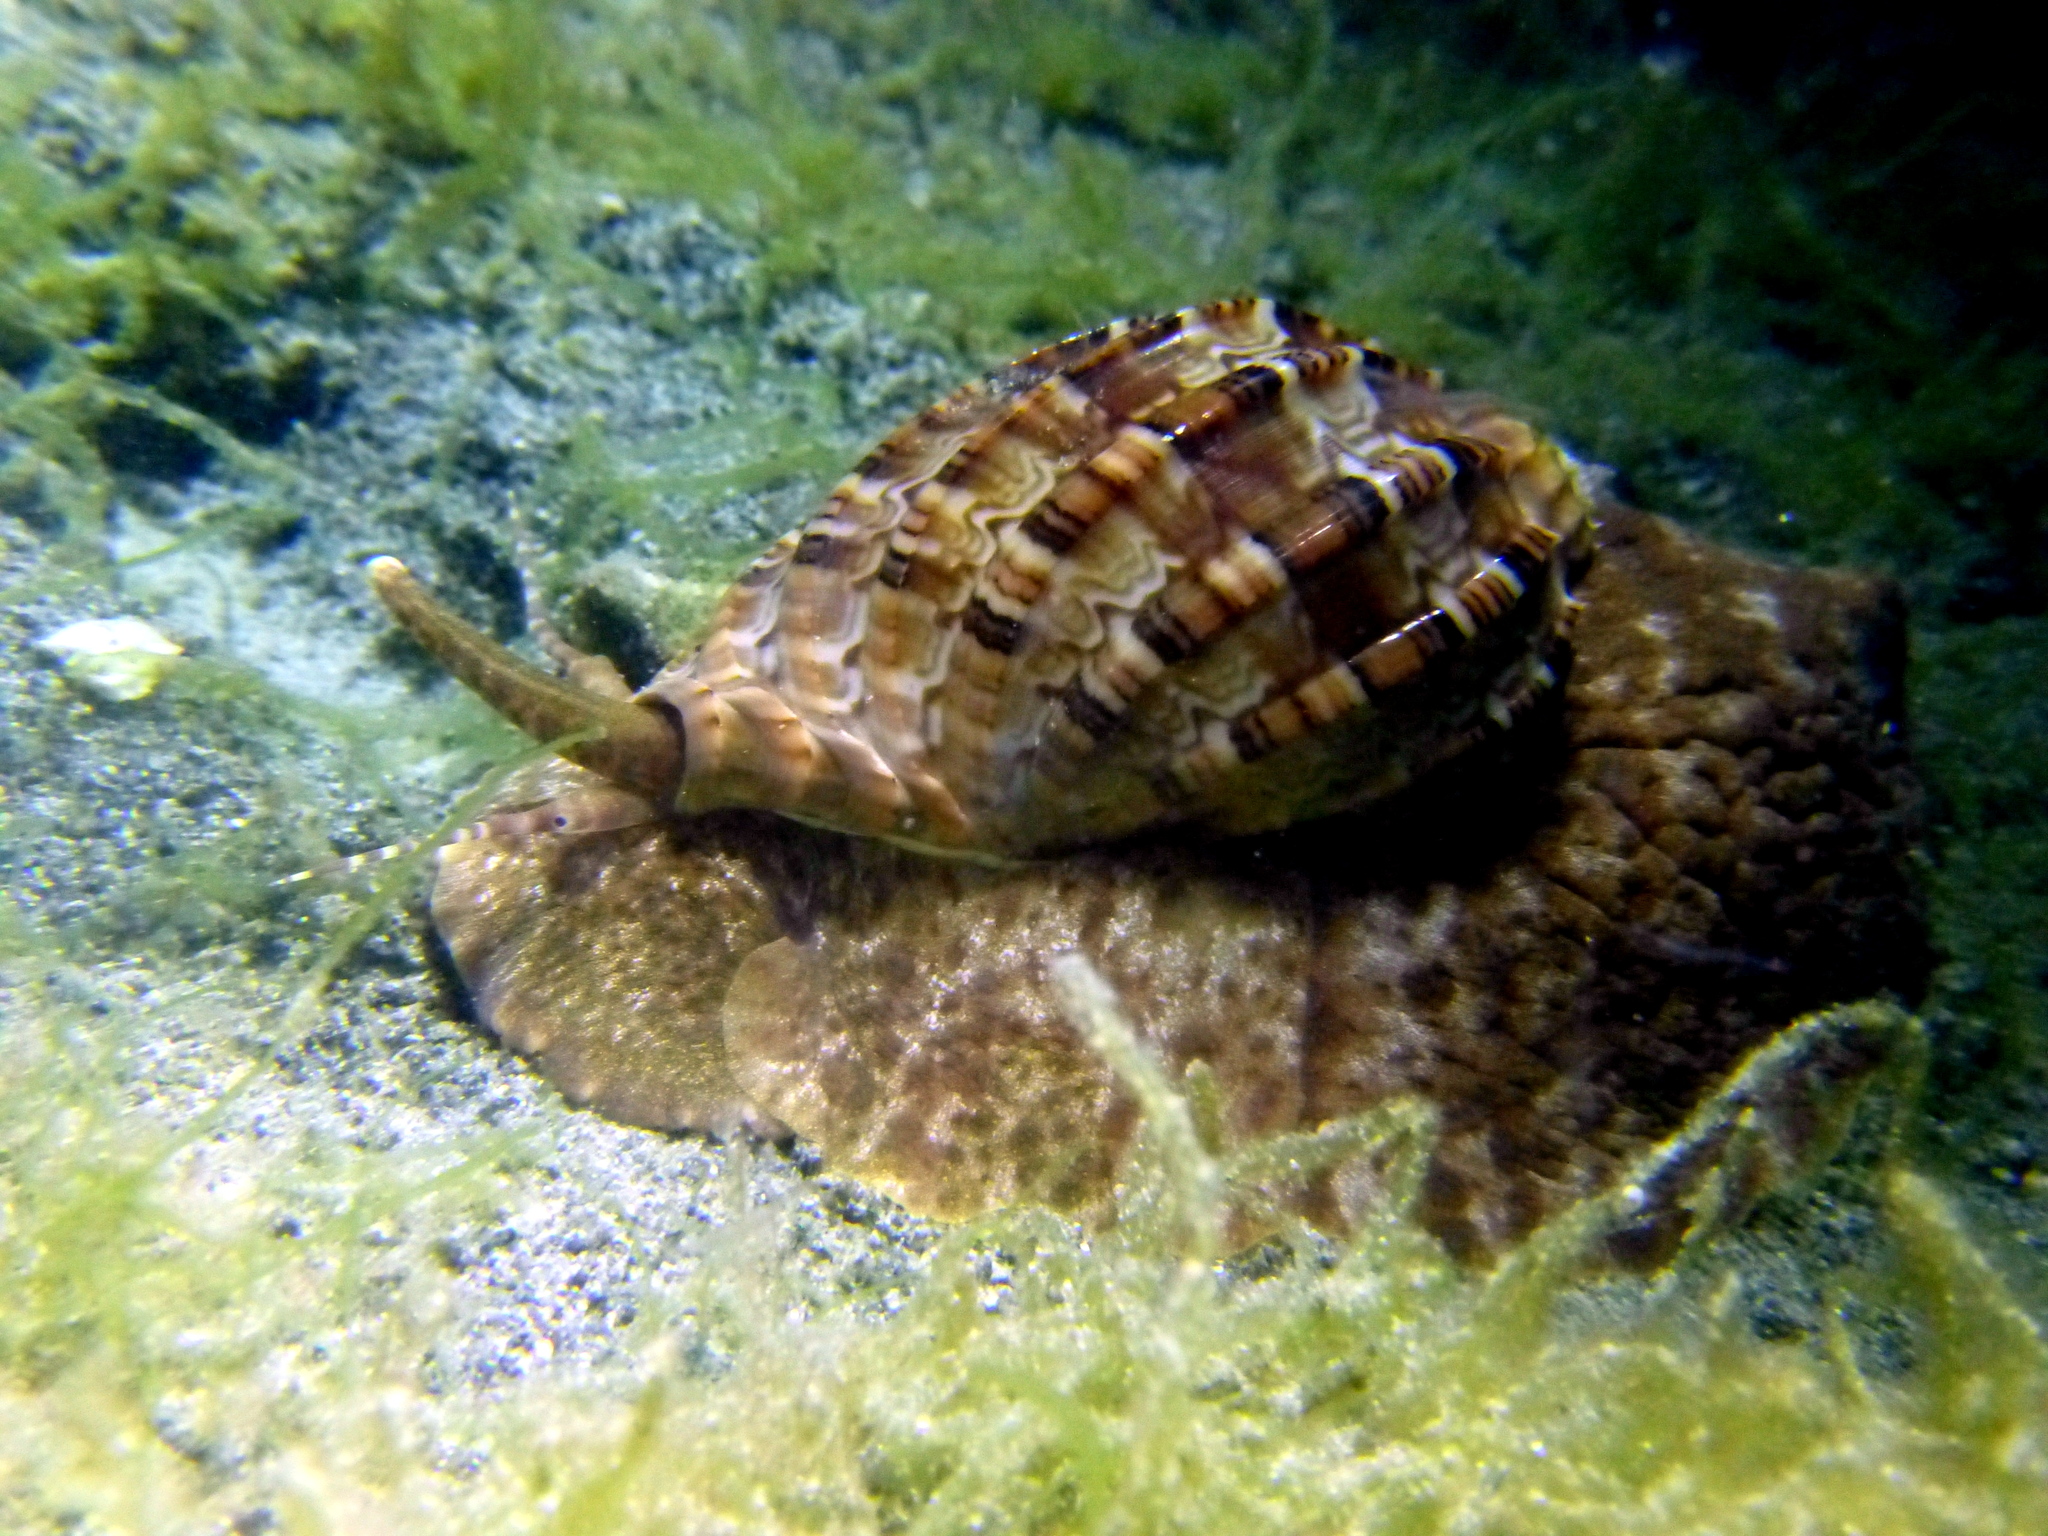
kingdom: Animalia
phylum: Mollusca
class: Gastropoda
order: Neogastropoda
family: Harpidae
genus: Harpa
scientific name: Harpa major
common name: Large harp
